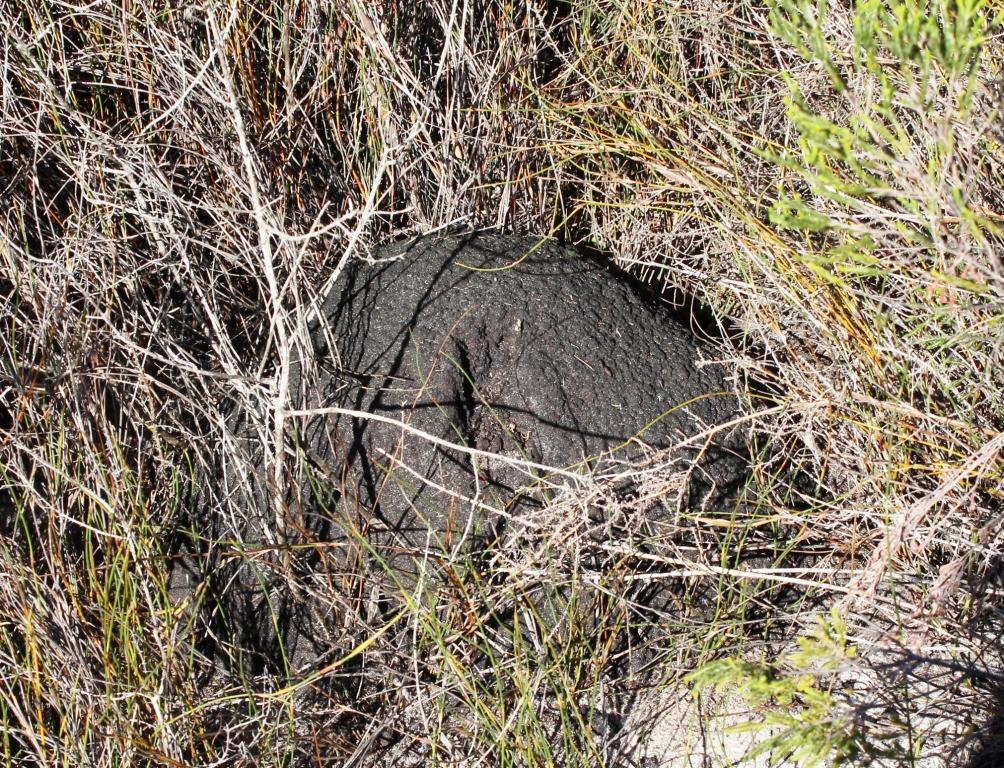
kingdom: Animalia
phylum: Arthropoda
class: Insecta
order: Blattodea
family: Termitidae
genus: Amitermes
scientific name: Amitermes hastatus
